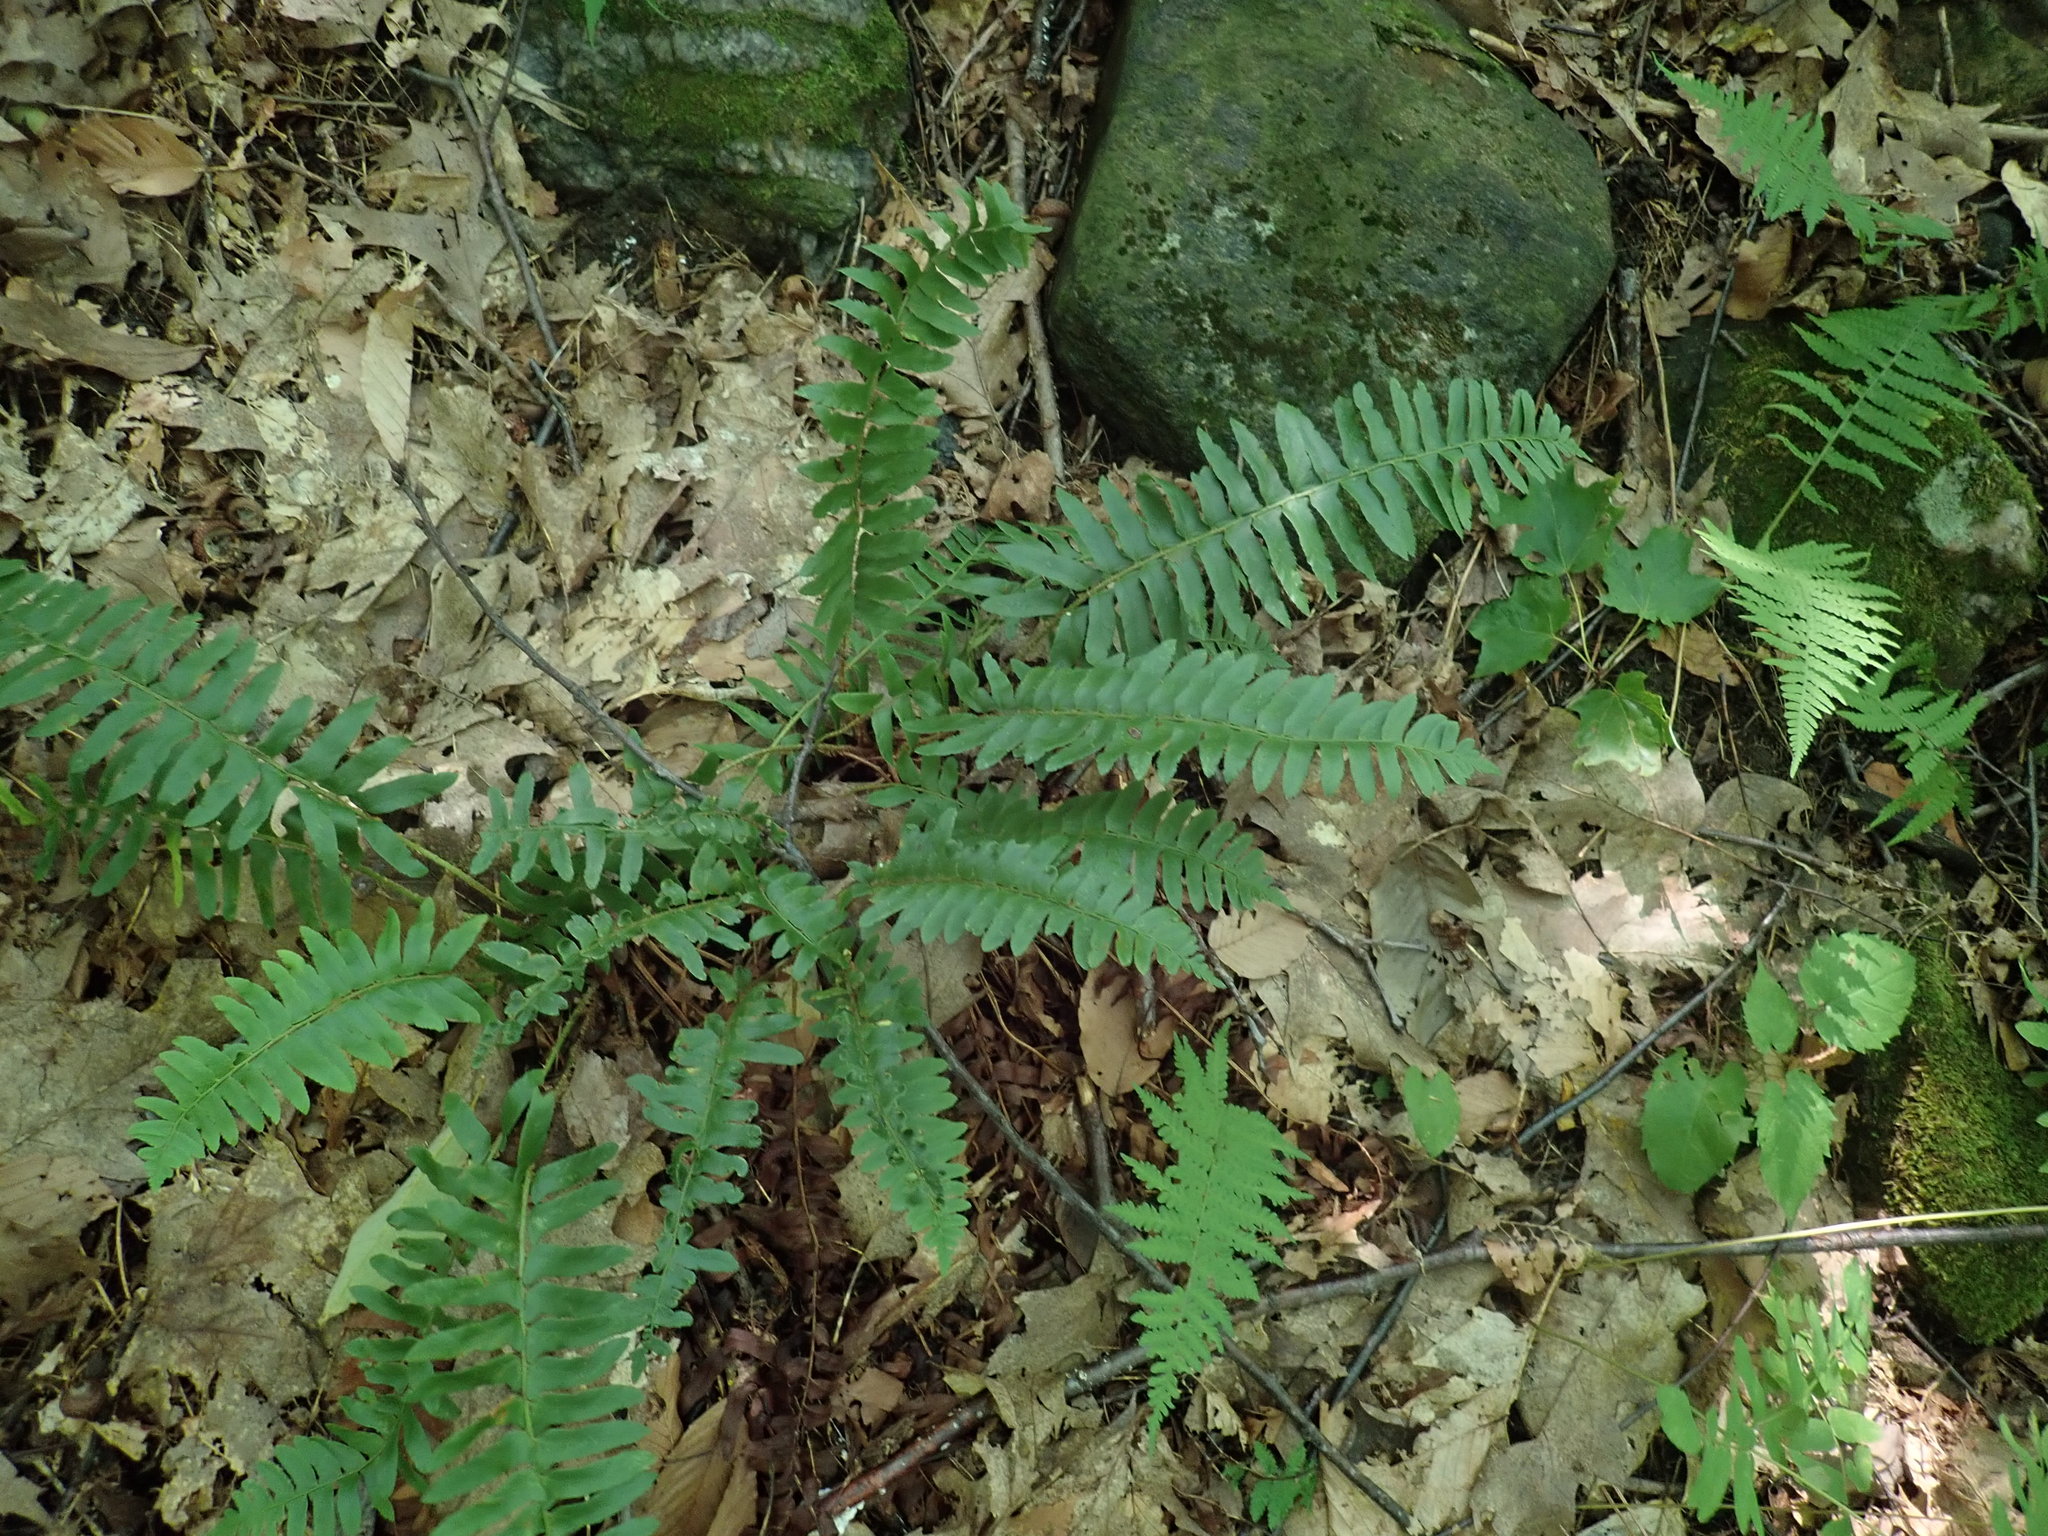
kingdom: Plantae
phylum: Tracheophyta
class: Polypodiopsida
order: Polypodiales
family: Dryopteridaceae
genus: Polystichum
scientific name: Polystichum acrostichoides
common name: Christmas fern
